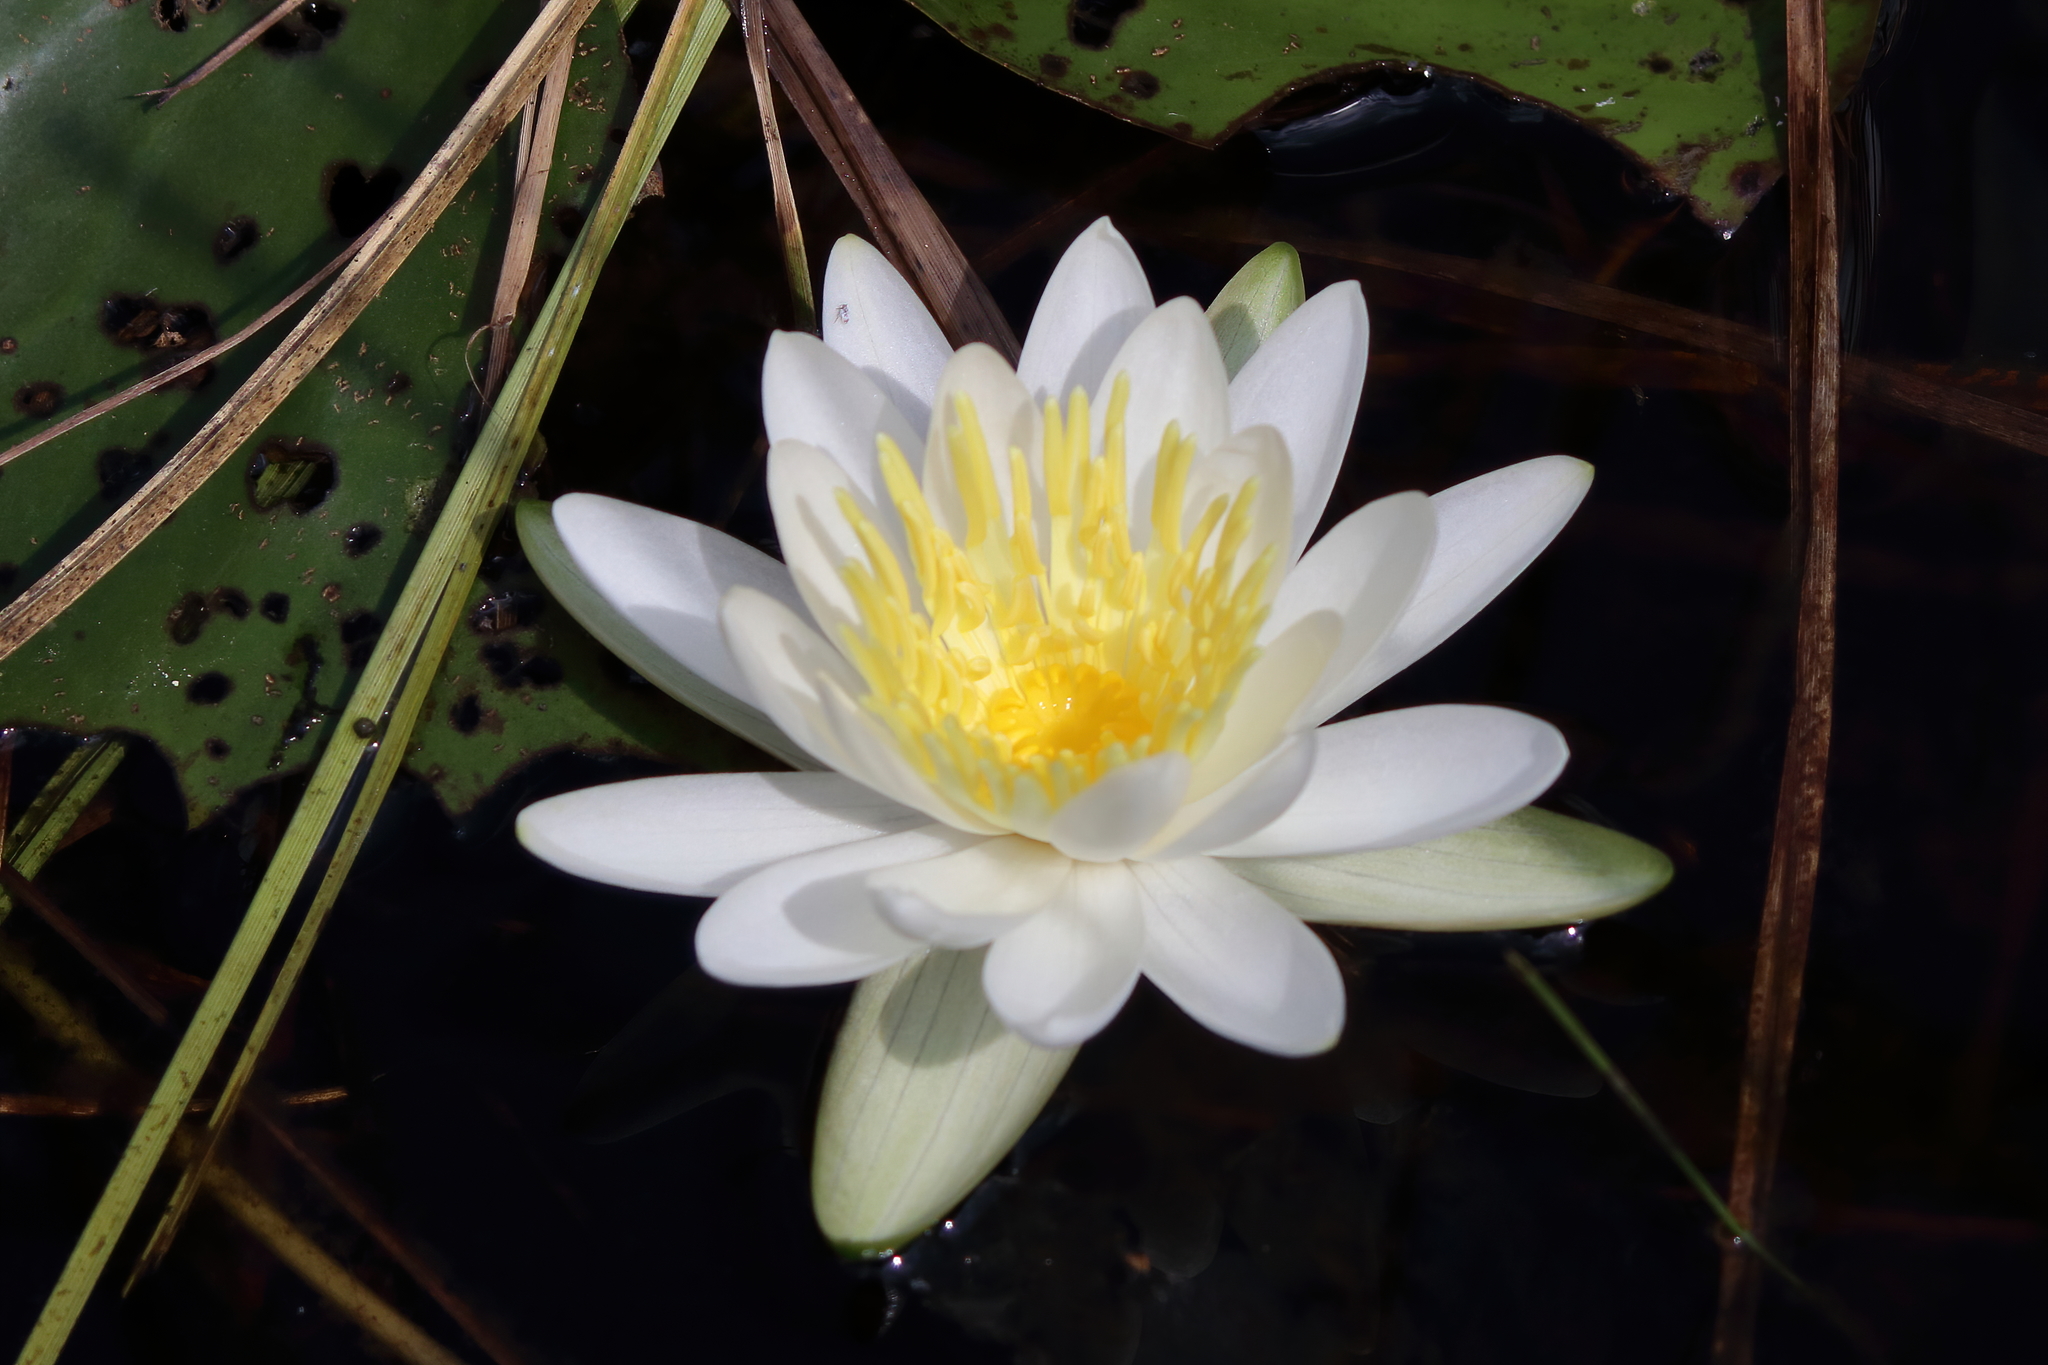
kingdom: Plantae
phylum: Tracheophyta
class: Magnoliopsida
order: Nymphaeales
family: Nymphaeaceae
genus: Nymphaea
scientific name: Nymphaea odorata
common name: Fragrant water-lily
